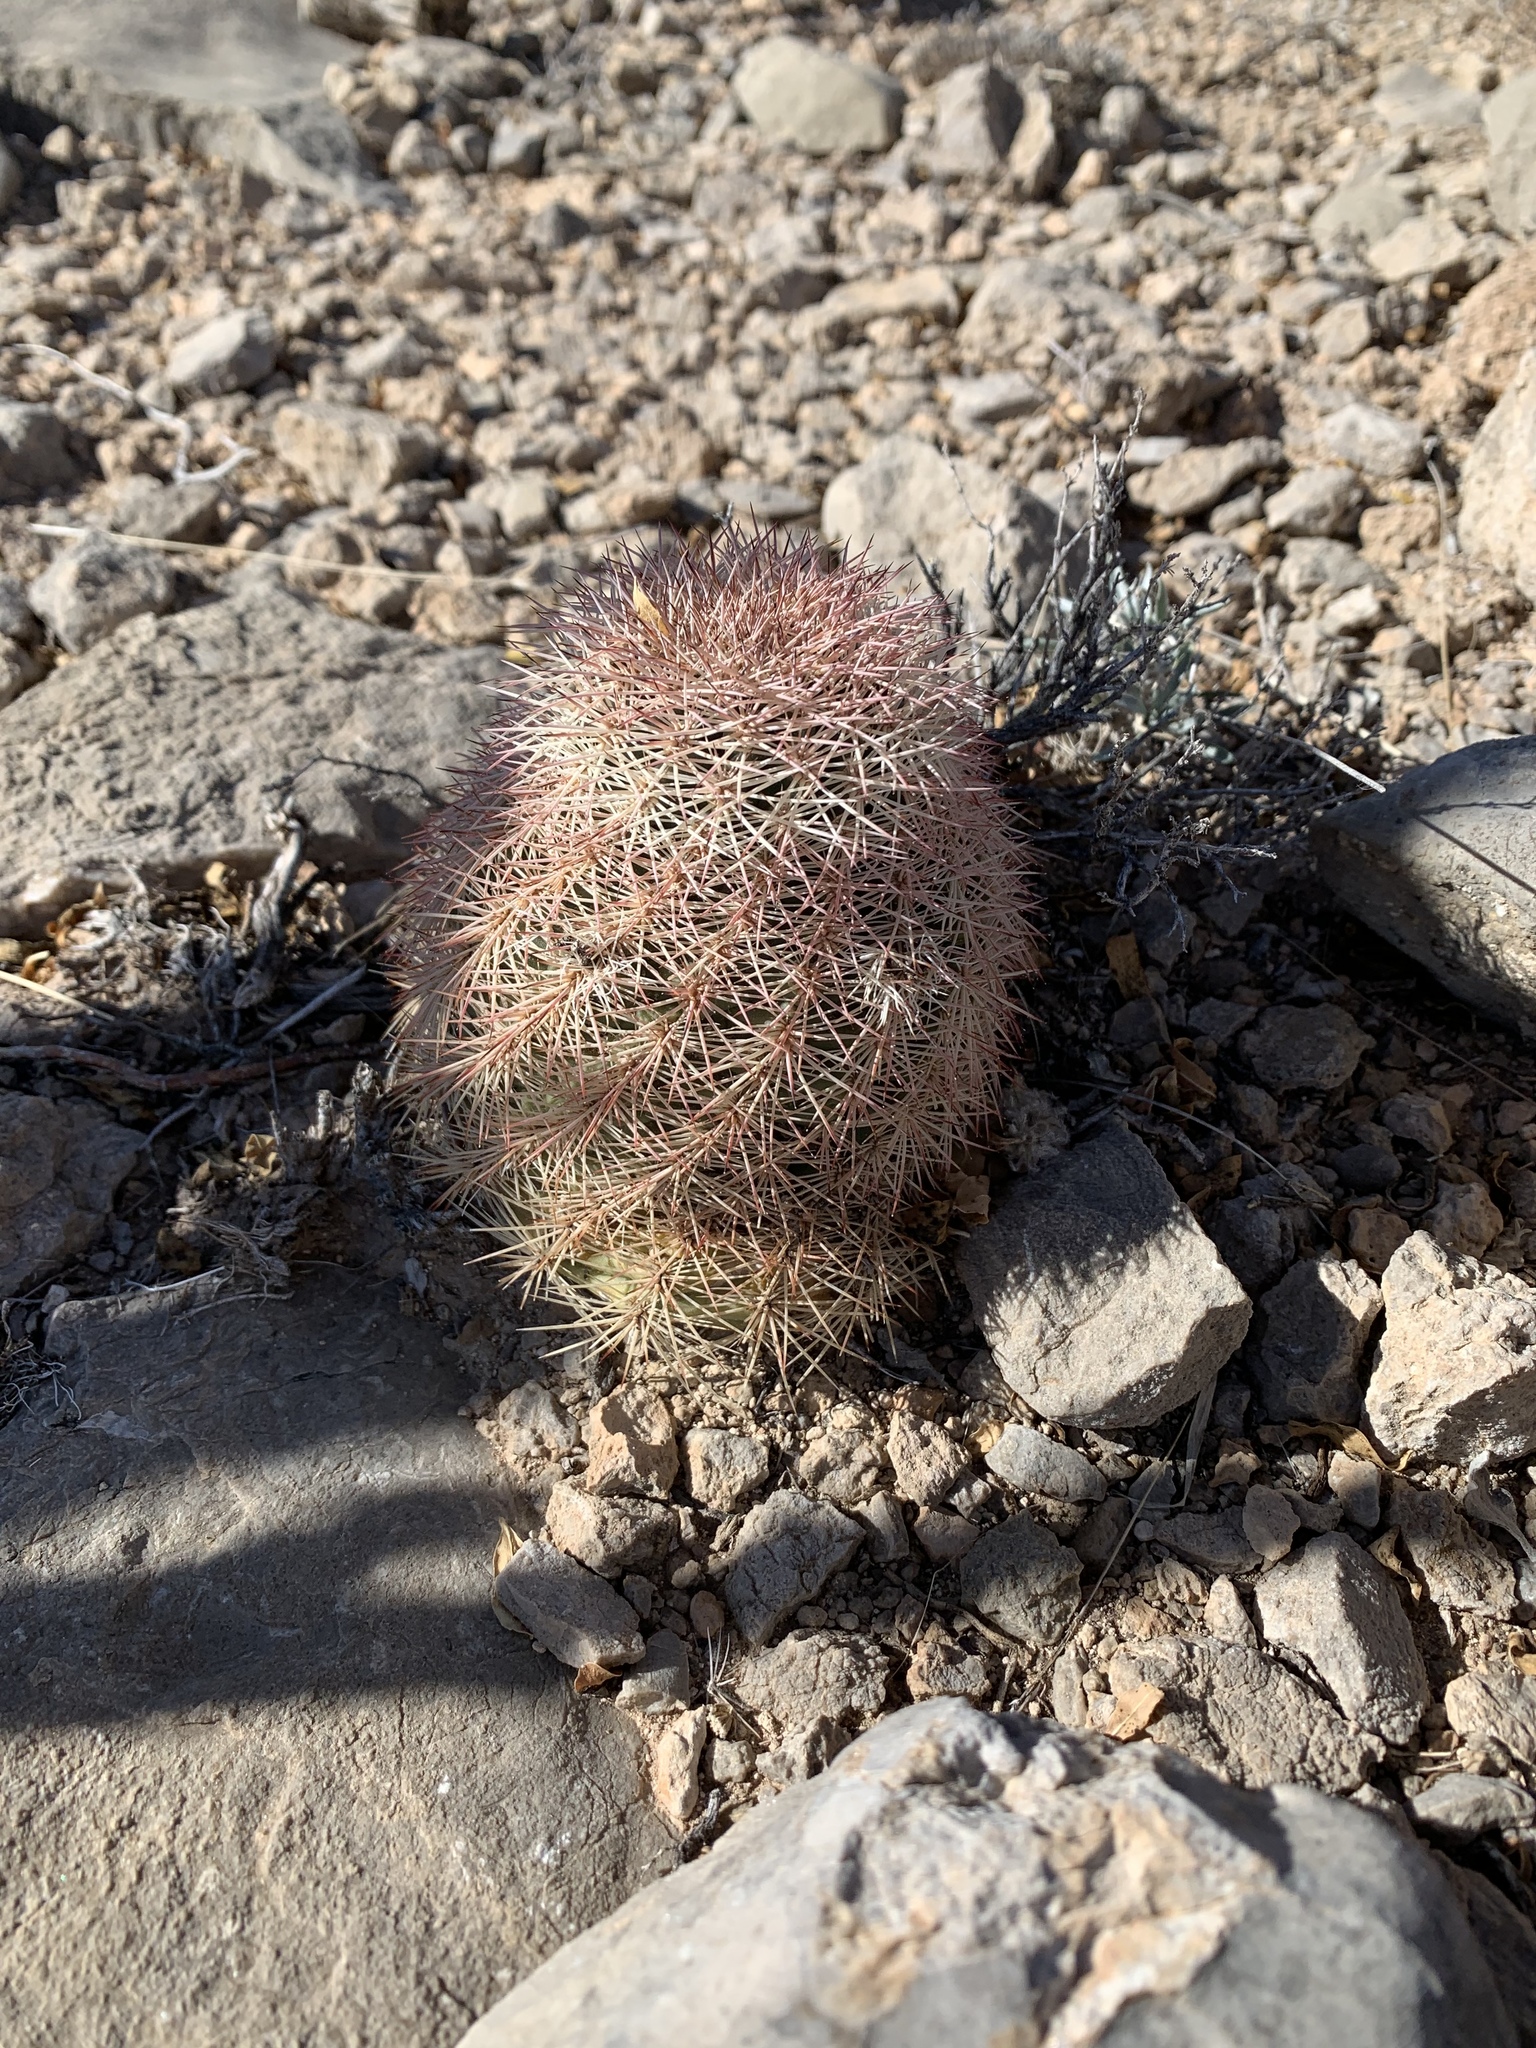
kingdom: Plantae
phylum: Tracheophyta
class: Magnoliopsida
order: Caryophyllales
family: Cactaceae
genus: Echinocereus
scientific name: Echinocereus dasyacanthus
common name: Spiny hedgehog cactus
